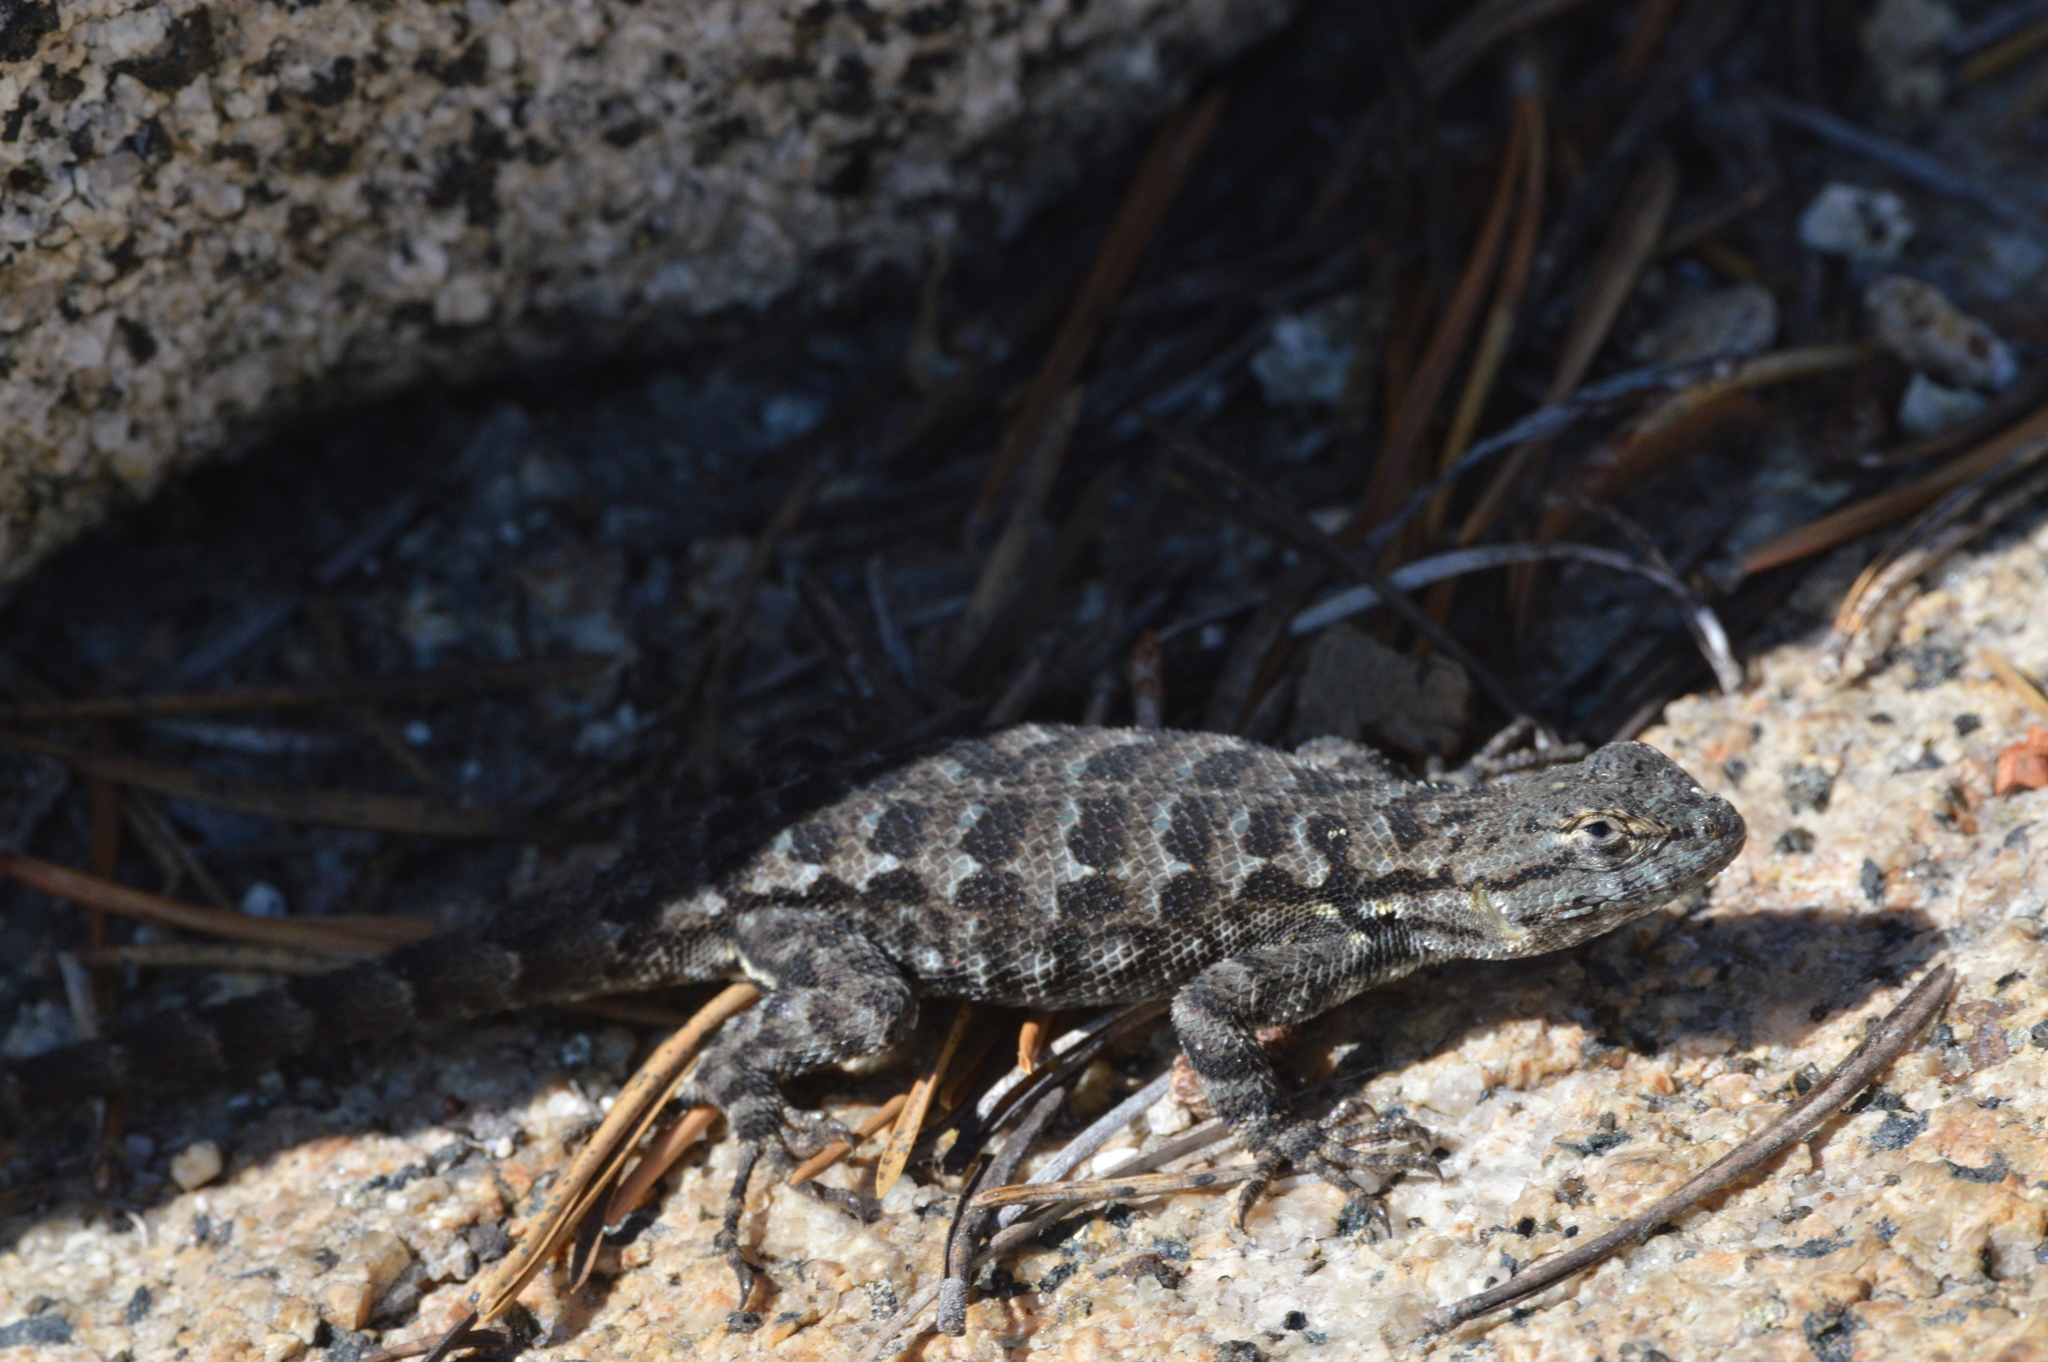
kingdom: Animalia
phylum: Chordata
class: Squamata
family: Phrynosomatidae
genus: Sceloporus
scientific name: Sceloporus occidentalis
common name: Western fence lizard
